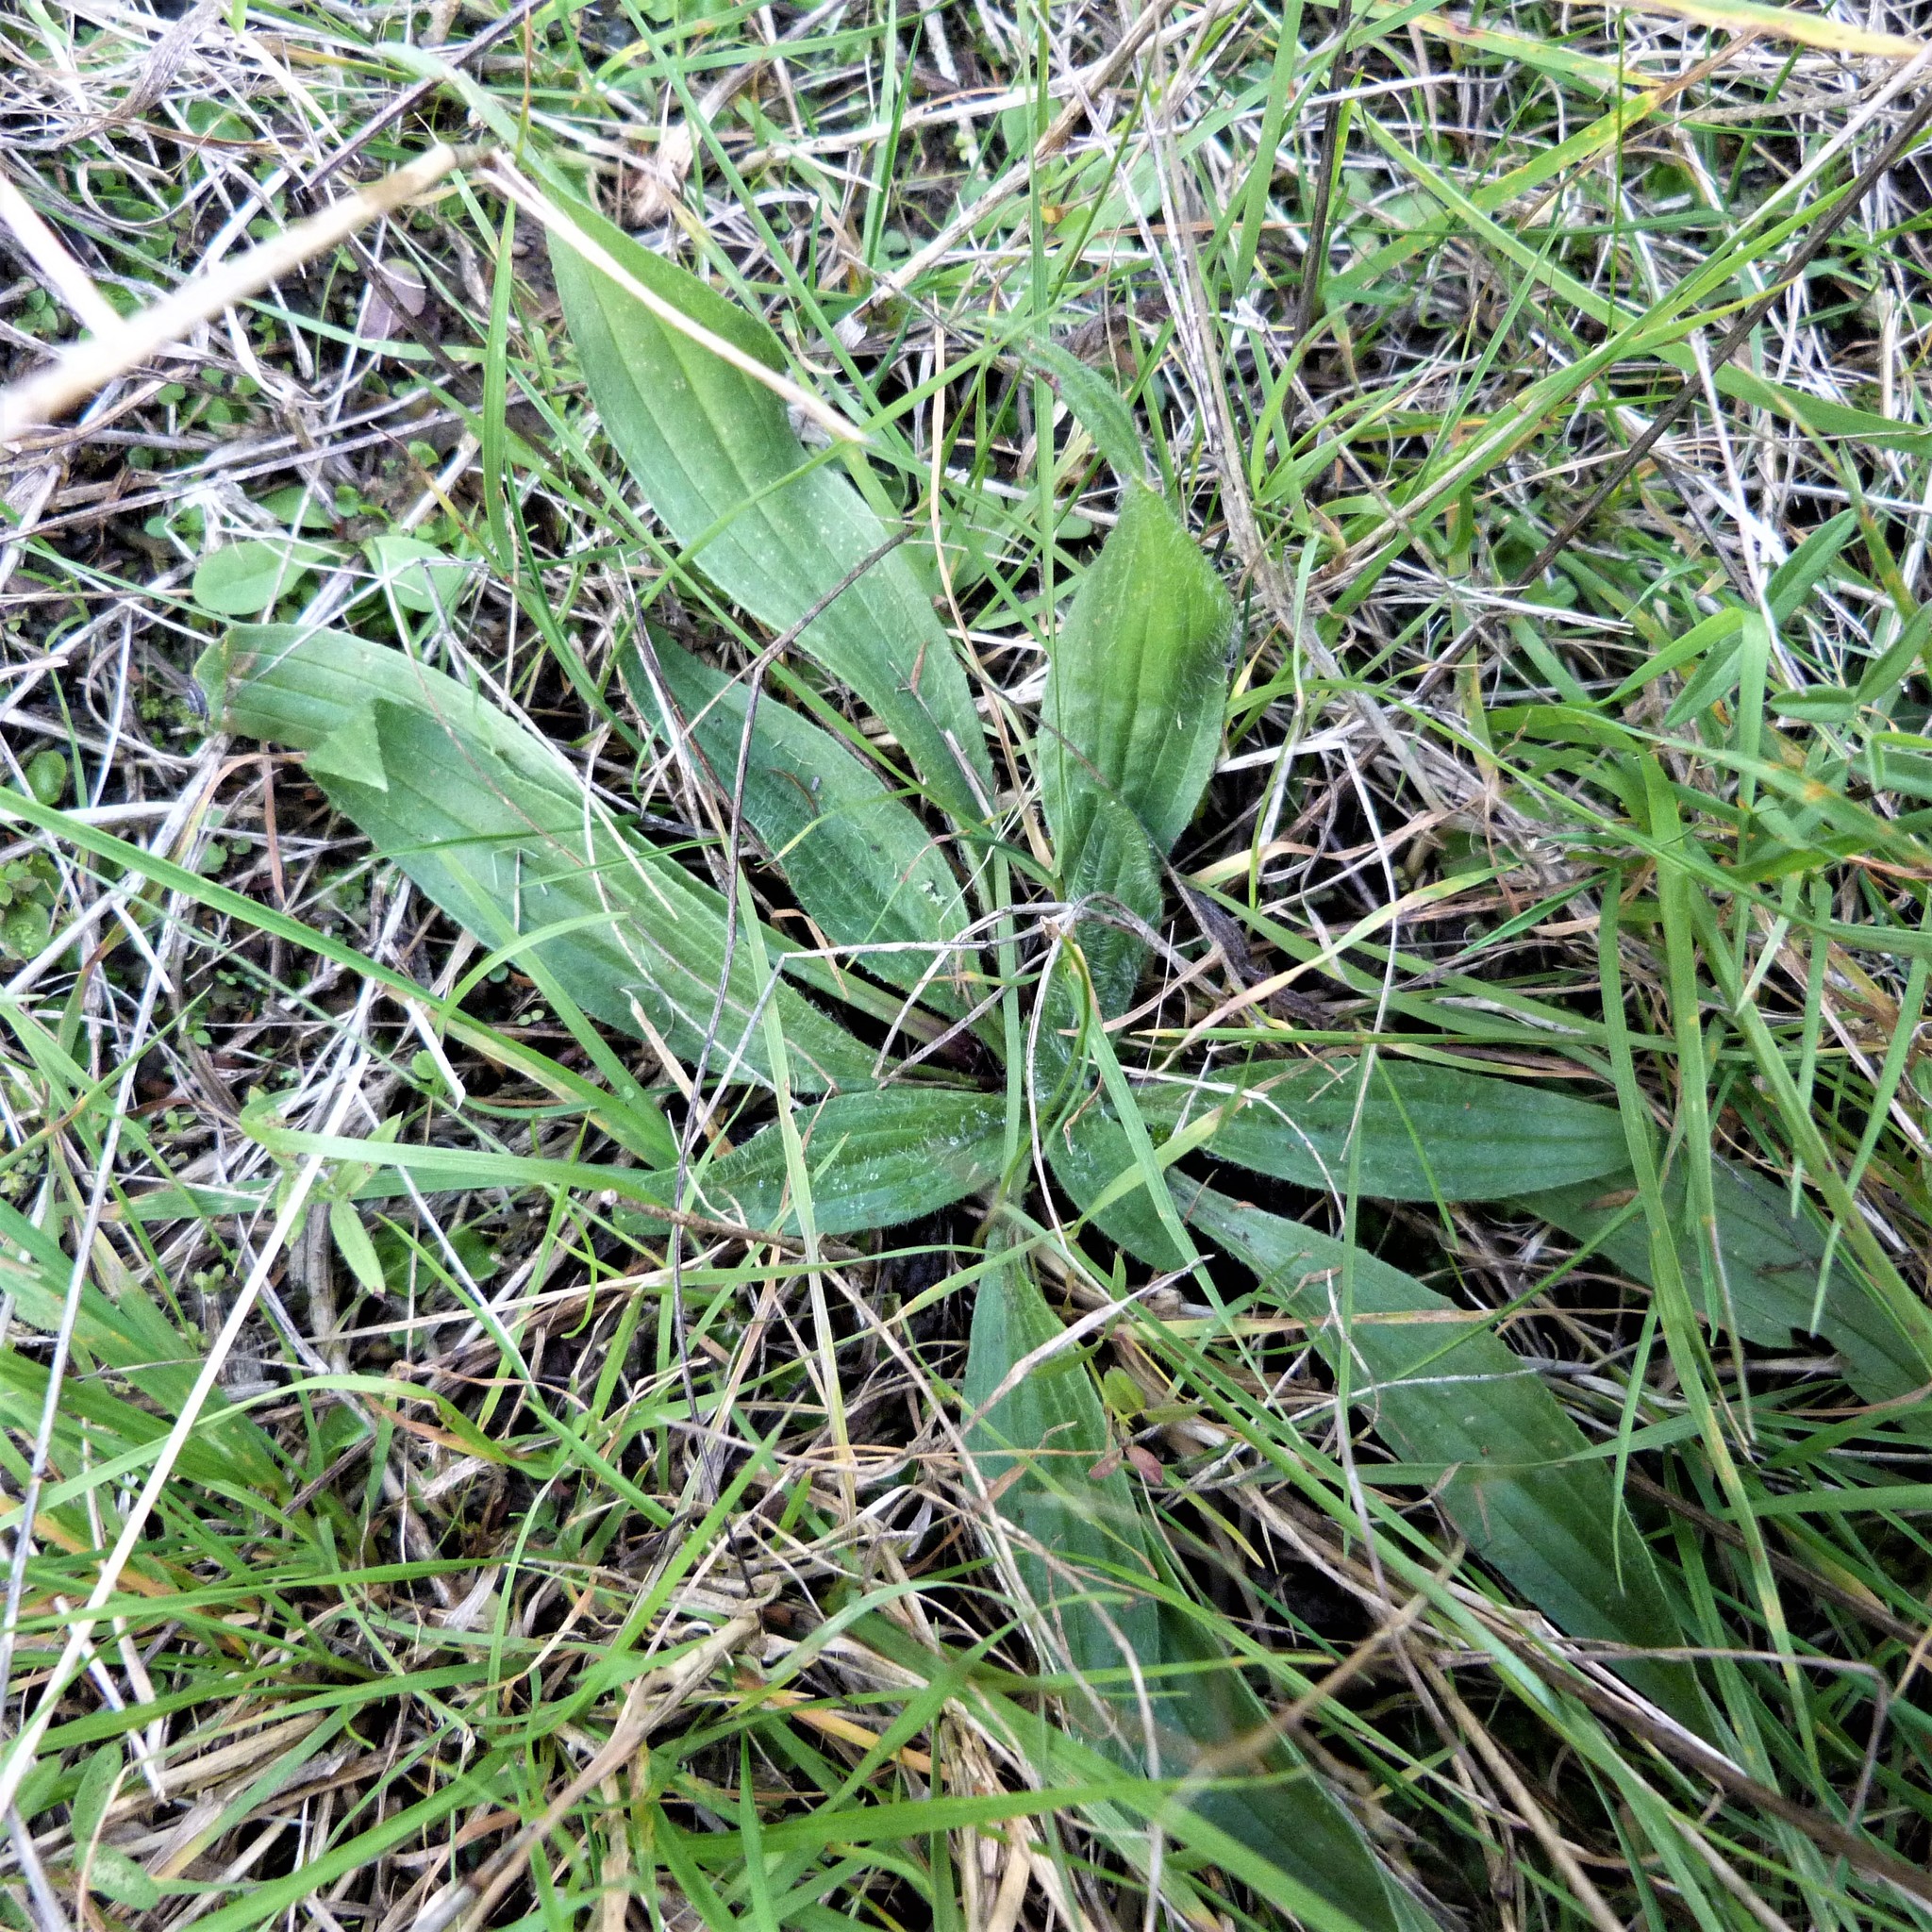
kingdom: Plantae
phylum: Tracheophyta
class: Magnoliopsida
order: Lamiales
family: Plantaginaceae
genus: Plantago
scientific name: Plantago lanceolata
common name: Ribwort plantain
